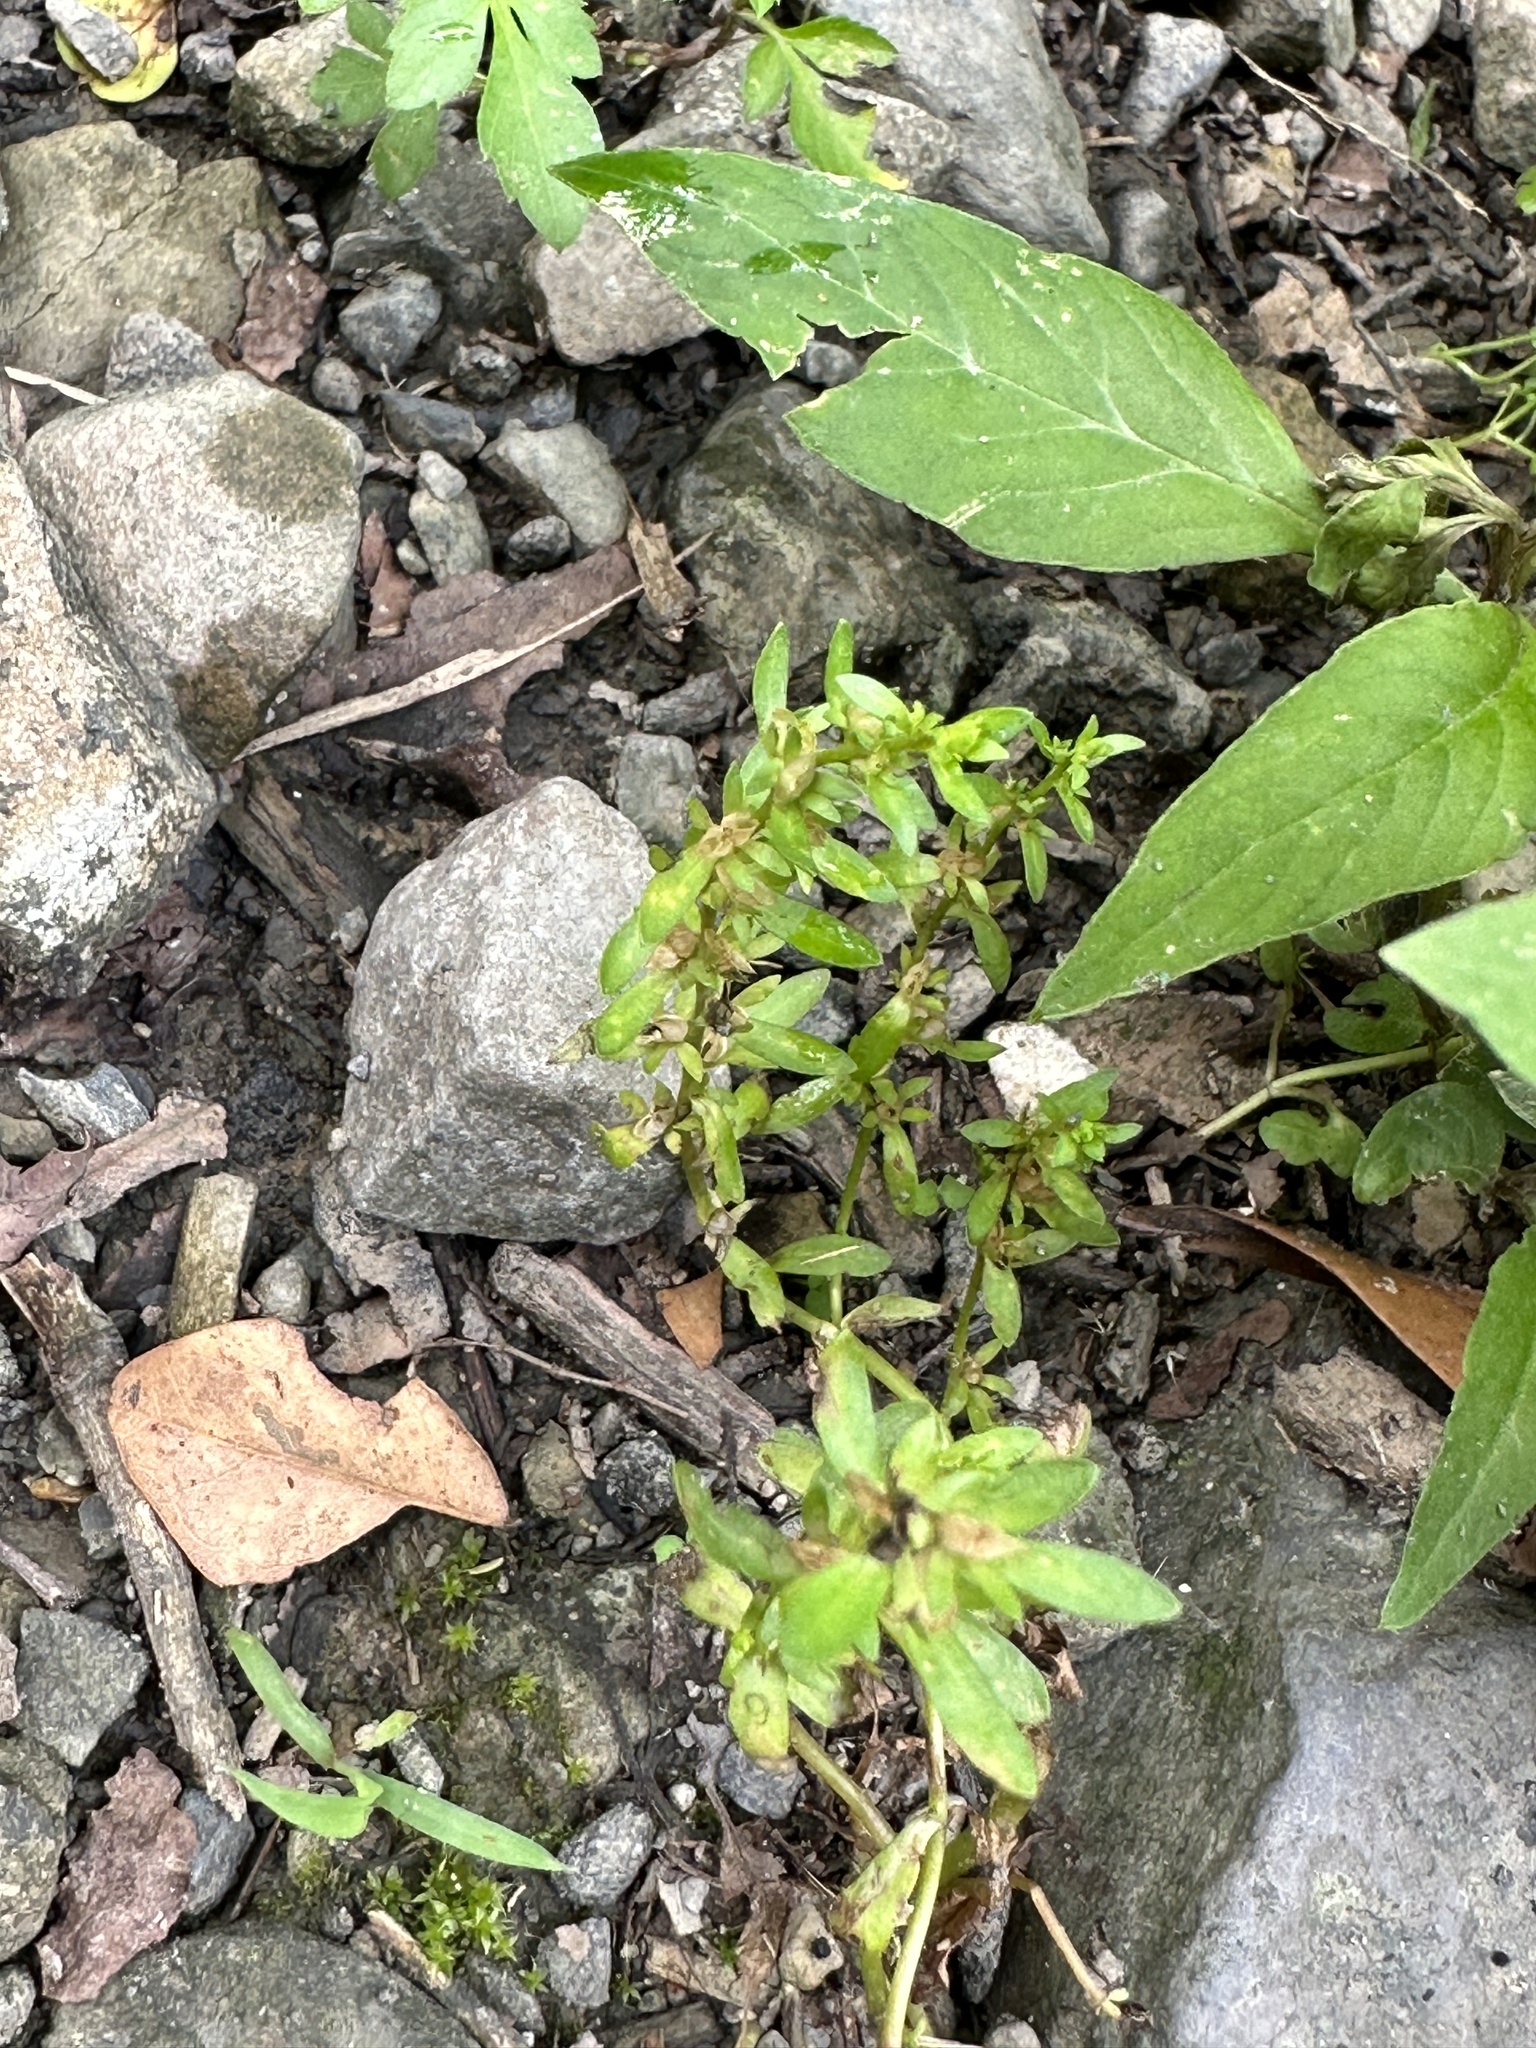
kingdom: Plantae
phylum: Tracheophyta
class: Magnoliopsida
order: Lamiales
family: Plantaginaceae
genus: Veronica
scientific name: Veronica peregrina
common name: Neckweed
